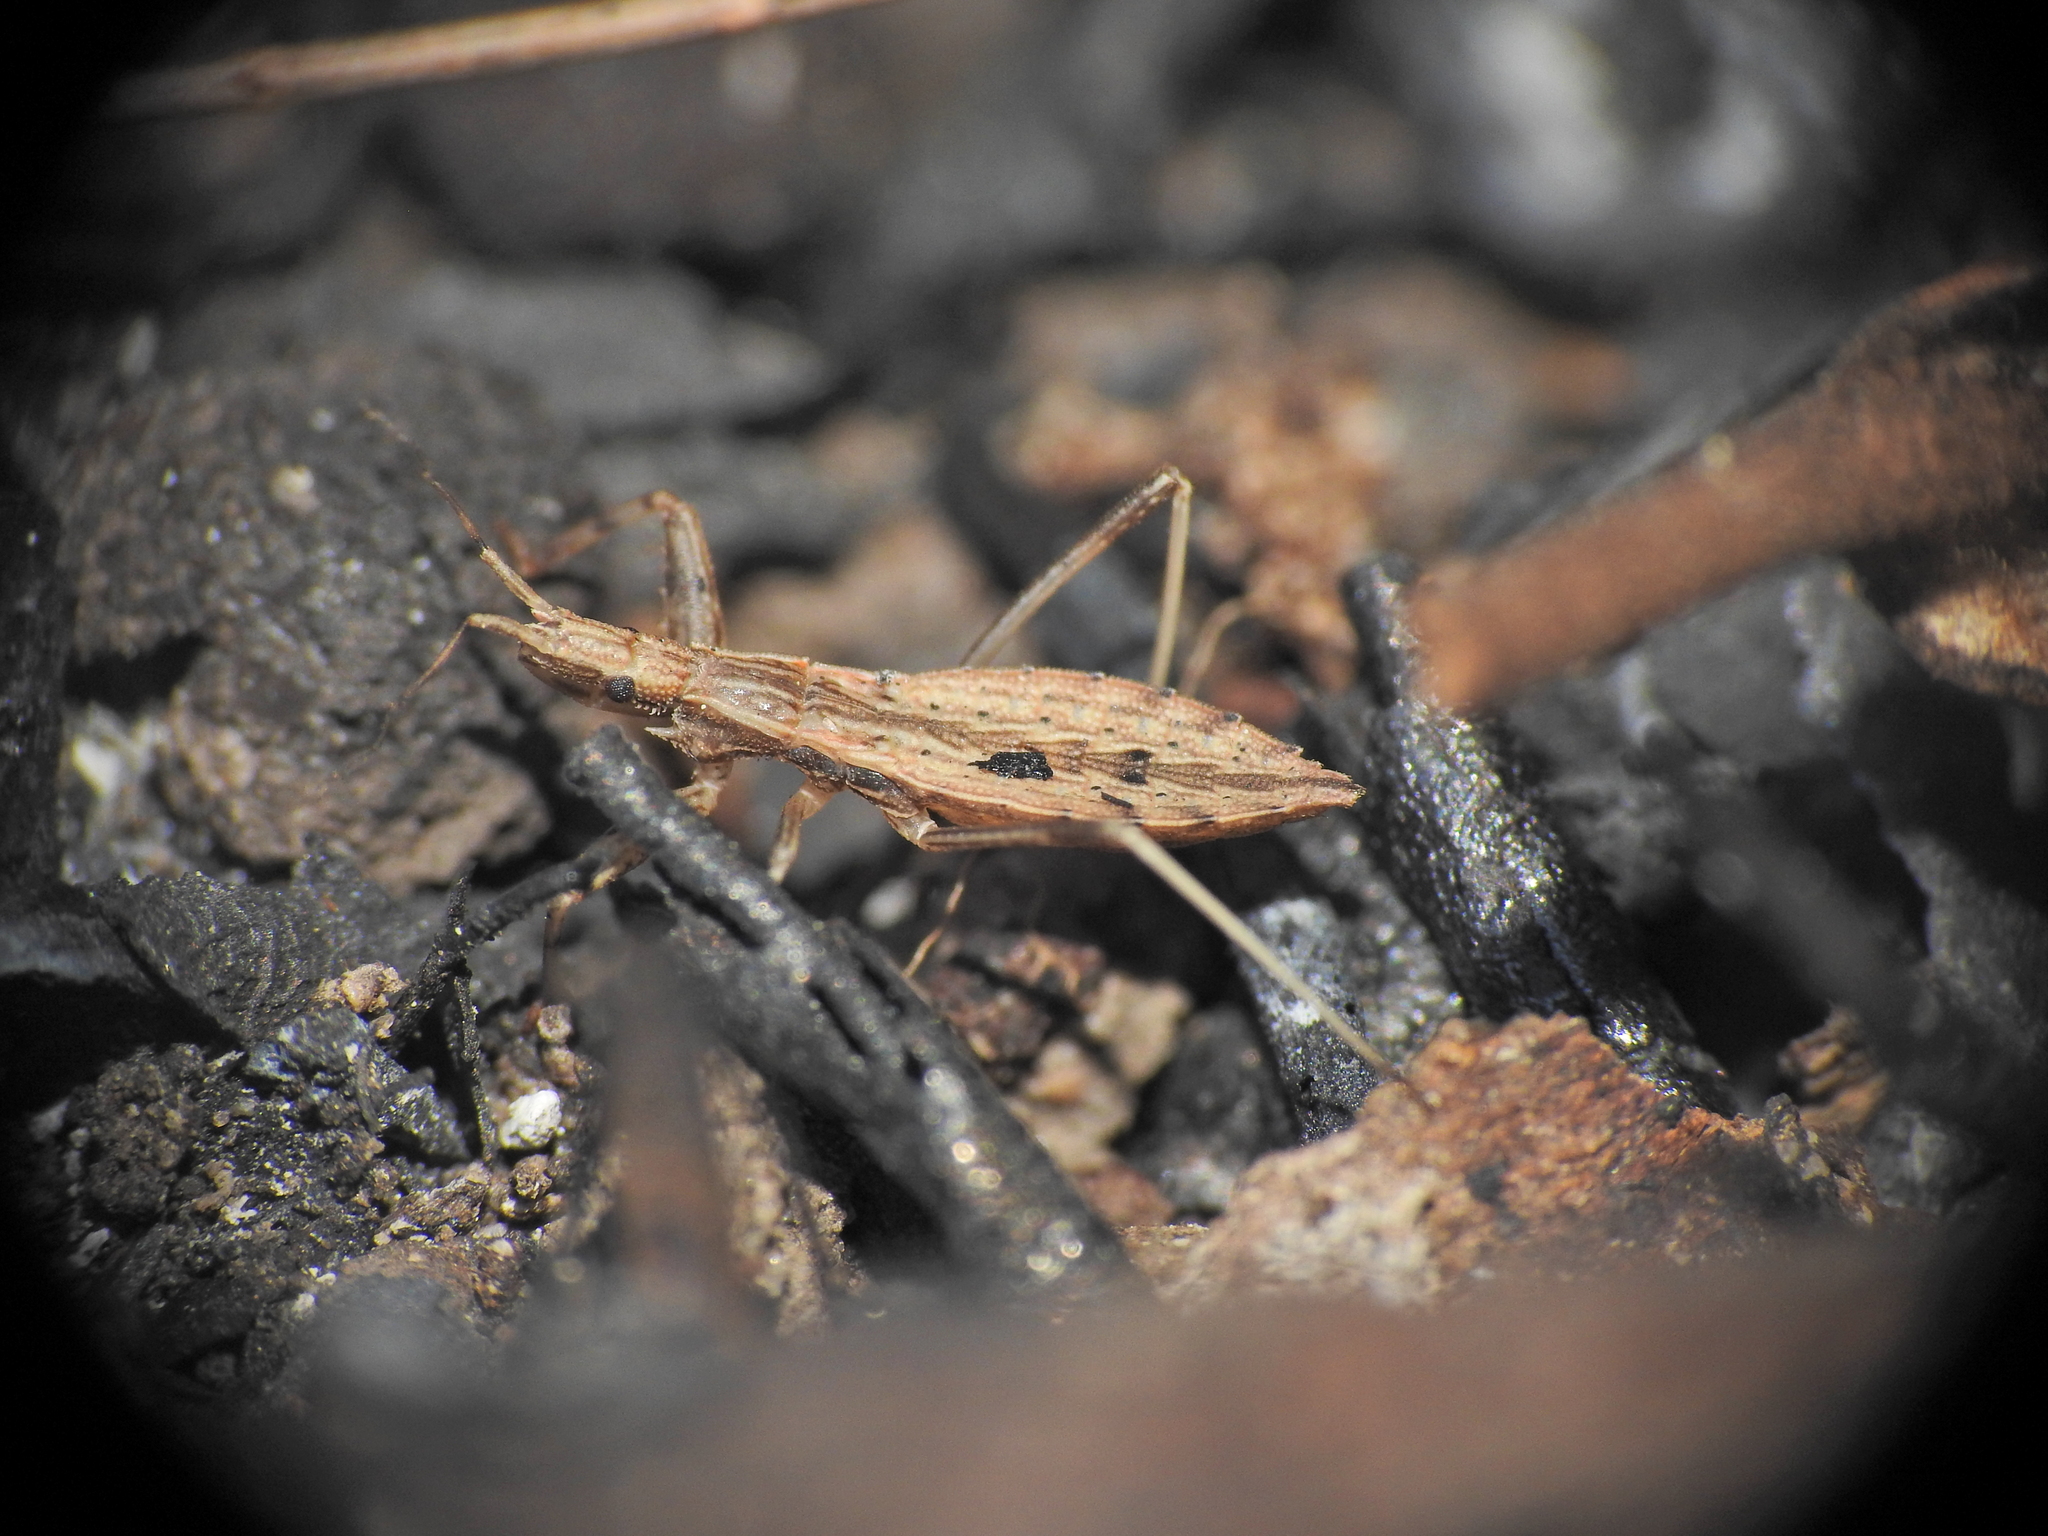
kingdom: Animalia
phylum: Arthropoda
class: Insecta
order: Hemiptera
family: Reduviidae
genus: Sastrapada
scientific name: Sastrapada australica
